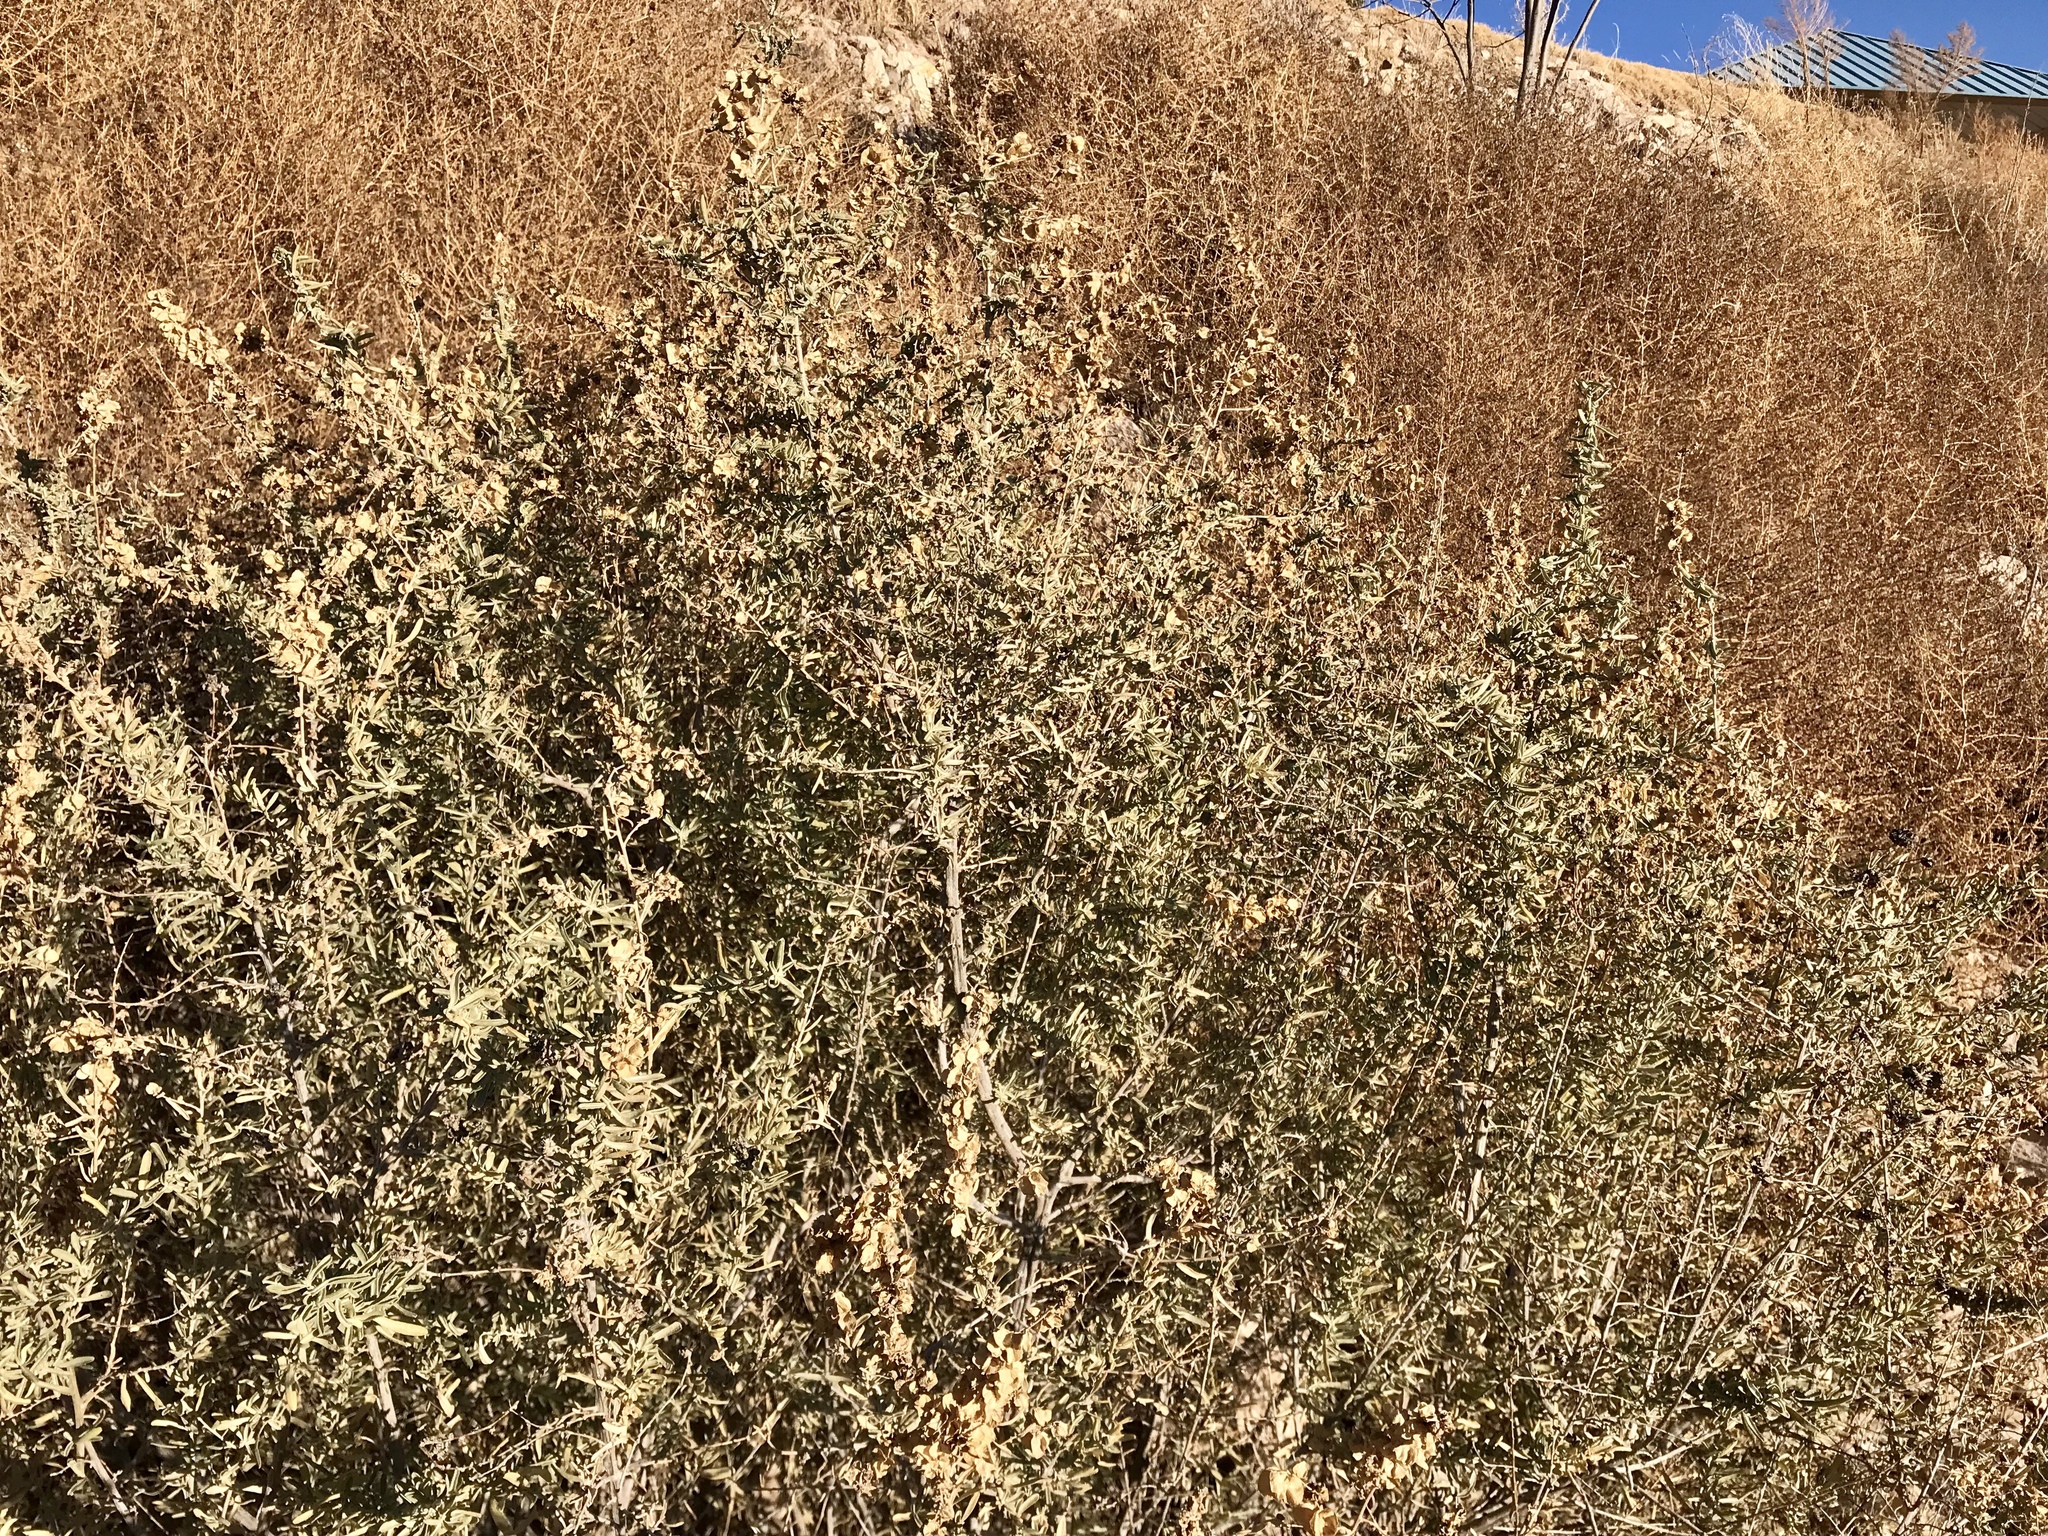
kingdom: Plantae
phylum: Tracheophyta
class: Magnoliopsida
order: Caryophyllales
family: Amaranthaceae
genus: Atriplex
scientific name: Atriplex canescens
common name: Four-wing saltbush
